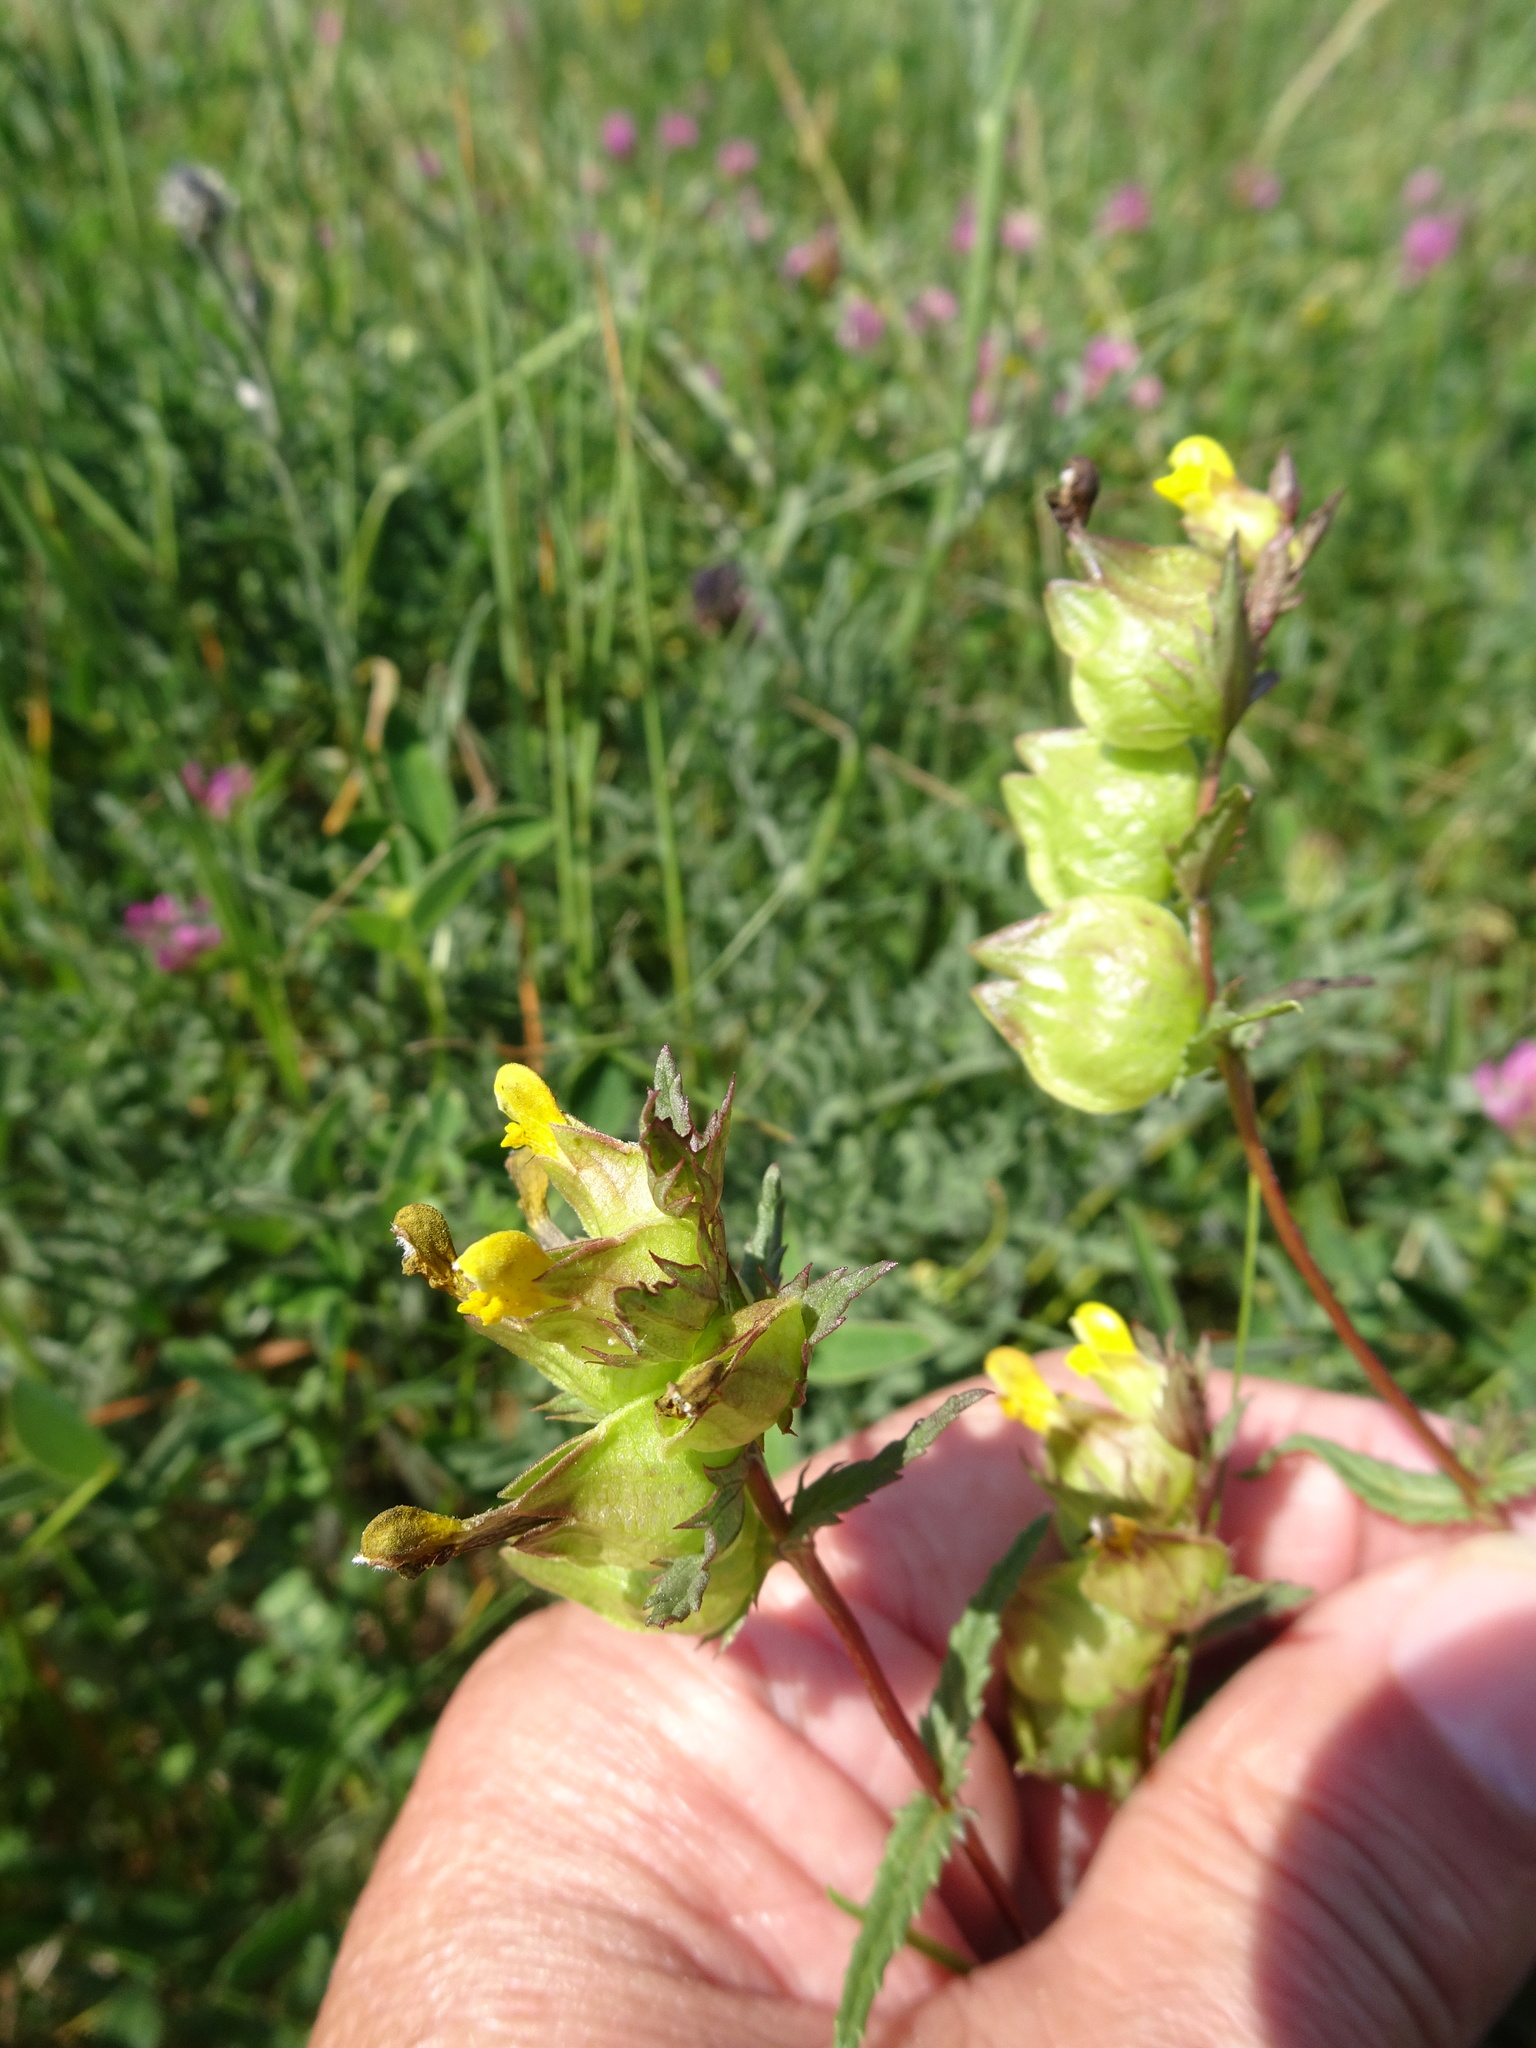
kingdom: Plantae
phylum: Tracheophyta
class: Magnoliopsida
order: Lamiales
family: Orobanchaceae
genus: Rhinanthus
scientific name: Rhinanthus minor
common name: Yellow-rattle
